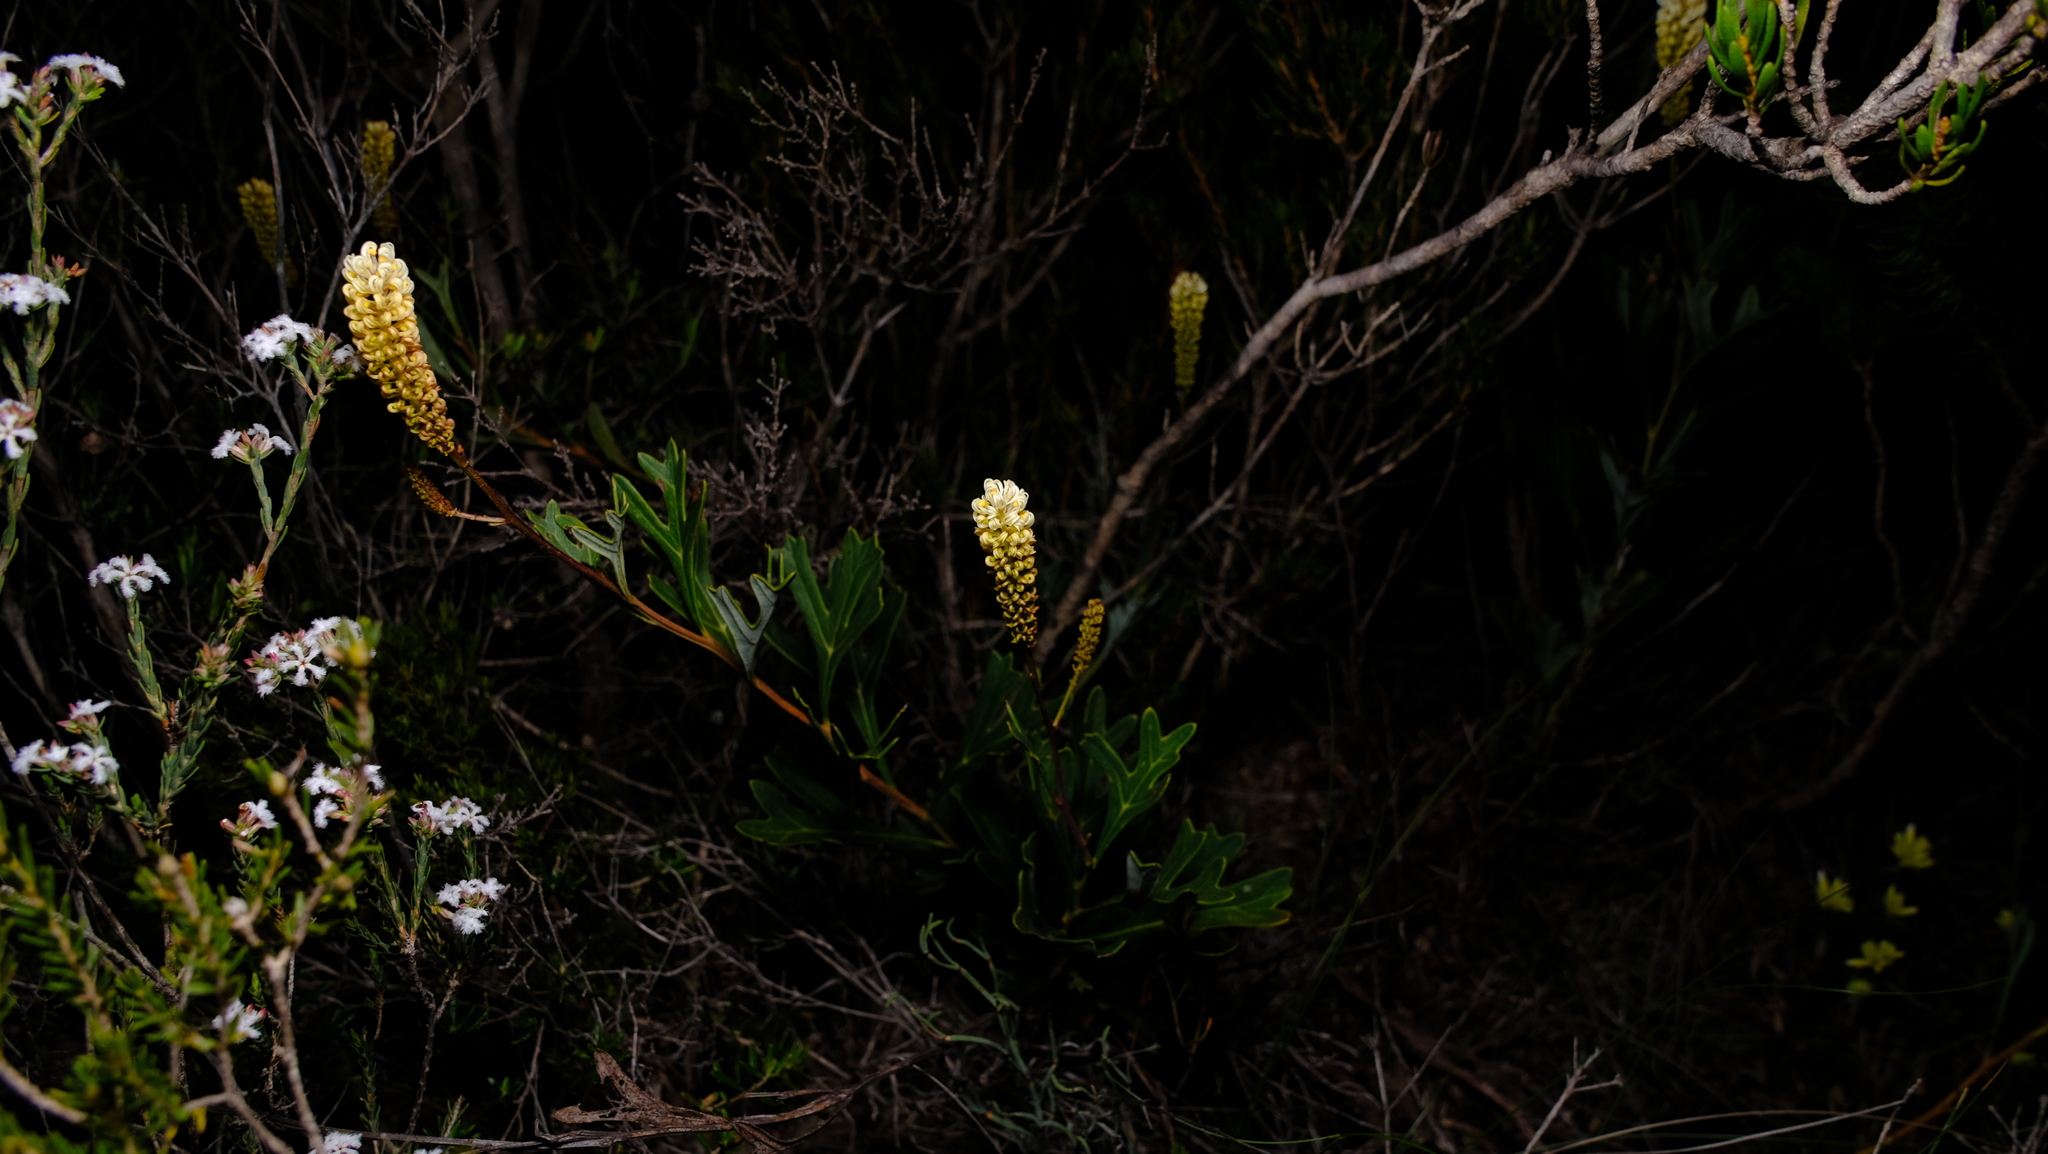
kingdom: Plantae
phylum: Tracheophyta
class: Magnoliopsida
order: Proteales
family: Proteaceae
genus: Grevillea
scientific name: Grevillea synaphea
